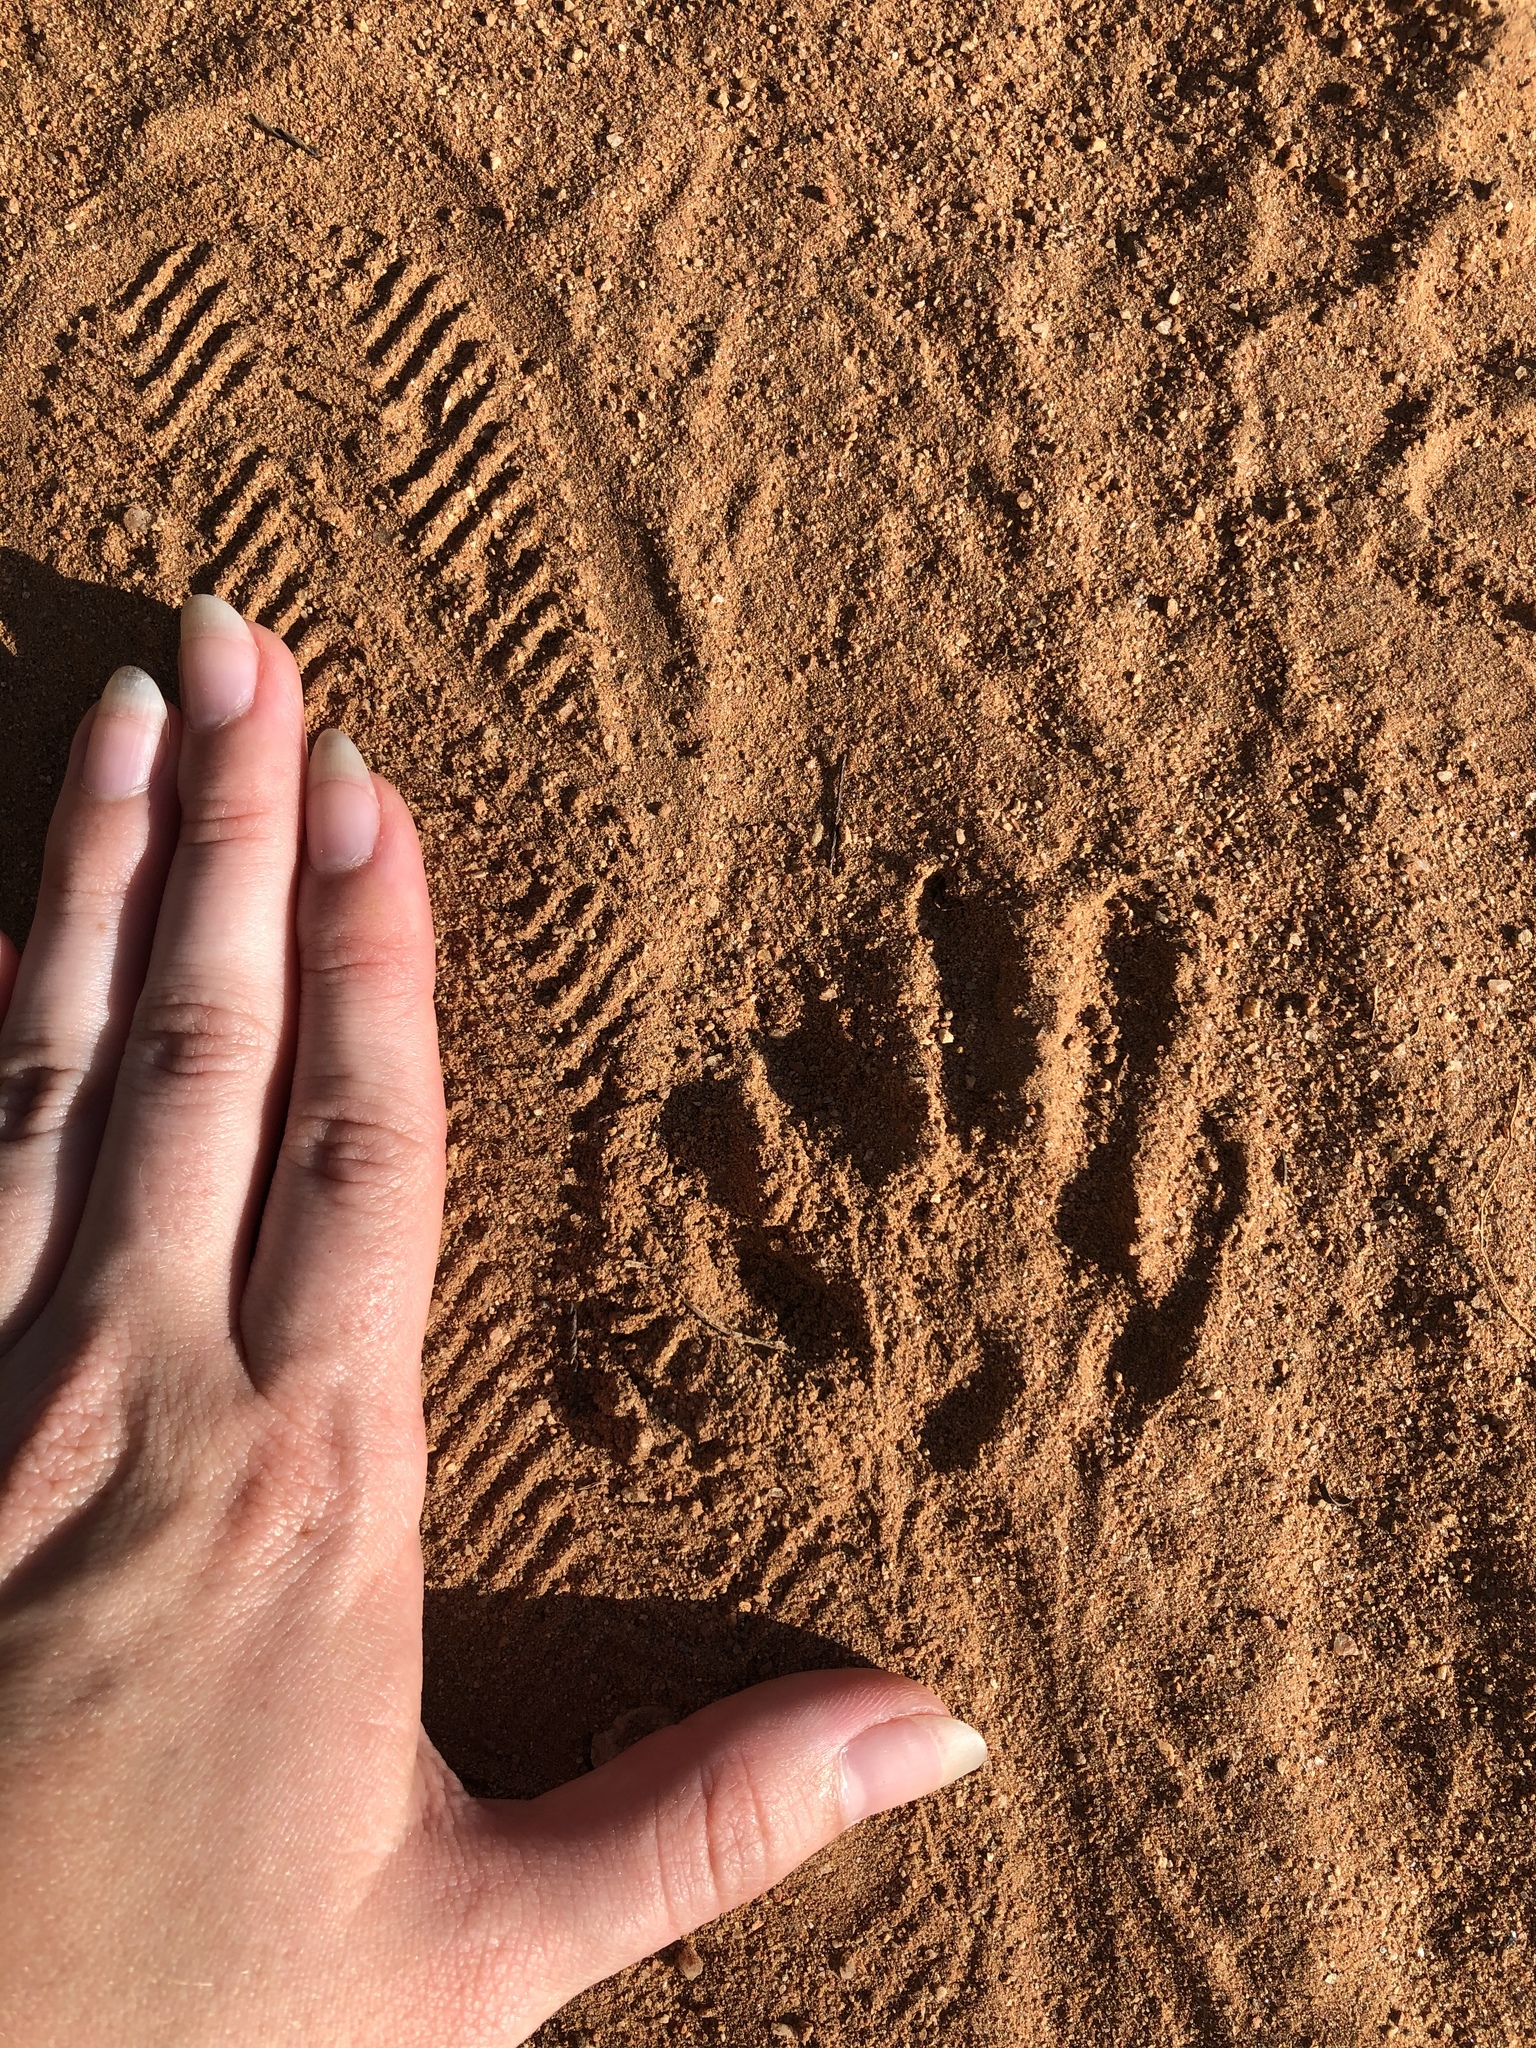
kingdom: Animalia
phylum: Chordata
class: Mammalia
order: Carnivora
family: Procyonidae
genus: Procyon
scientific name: Procyon lotor
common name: Raccoon
